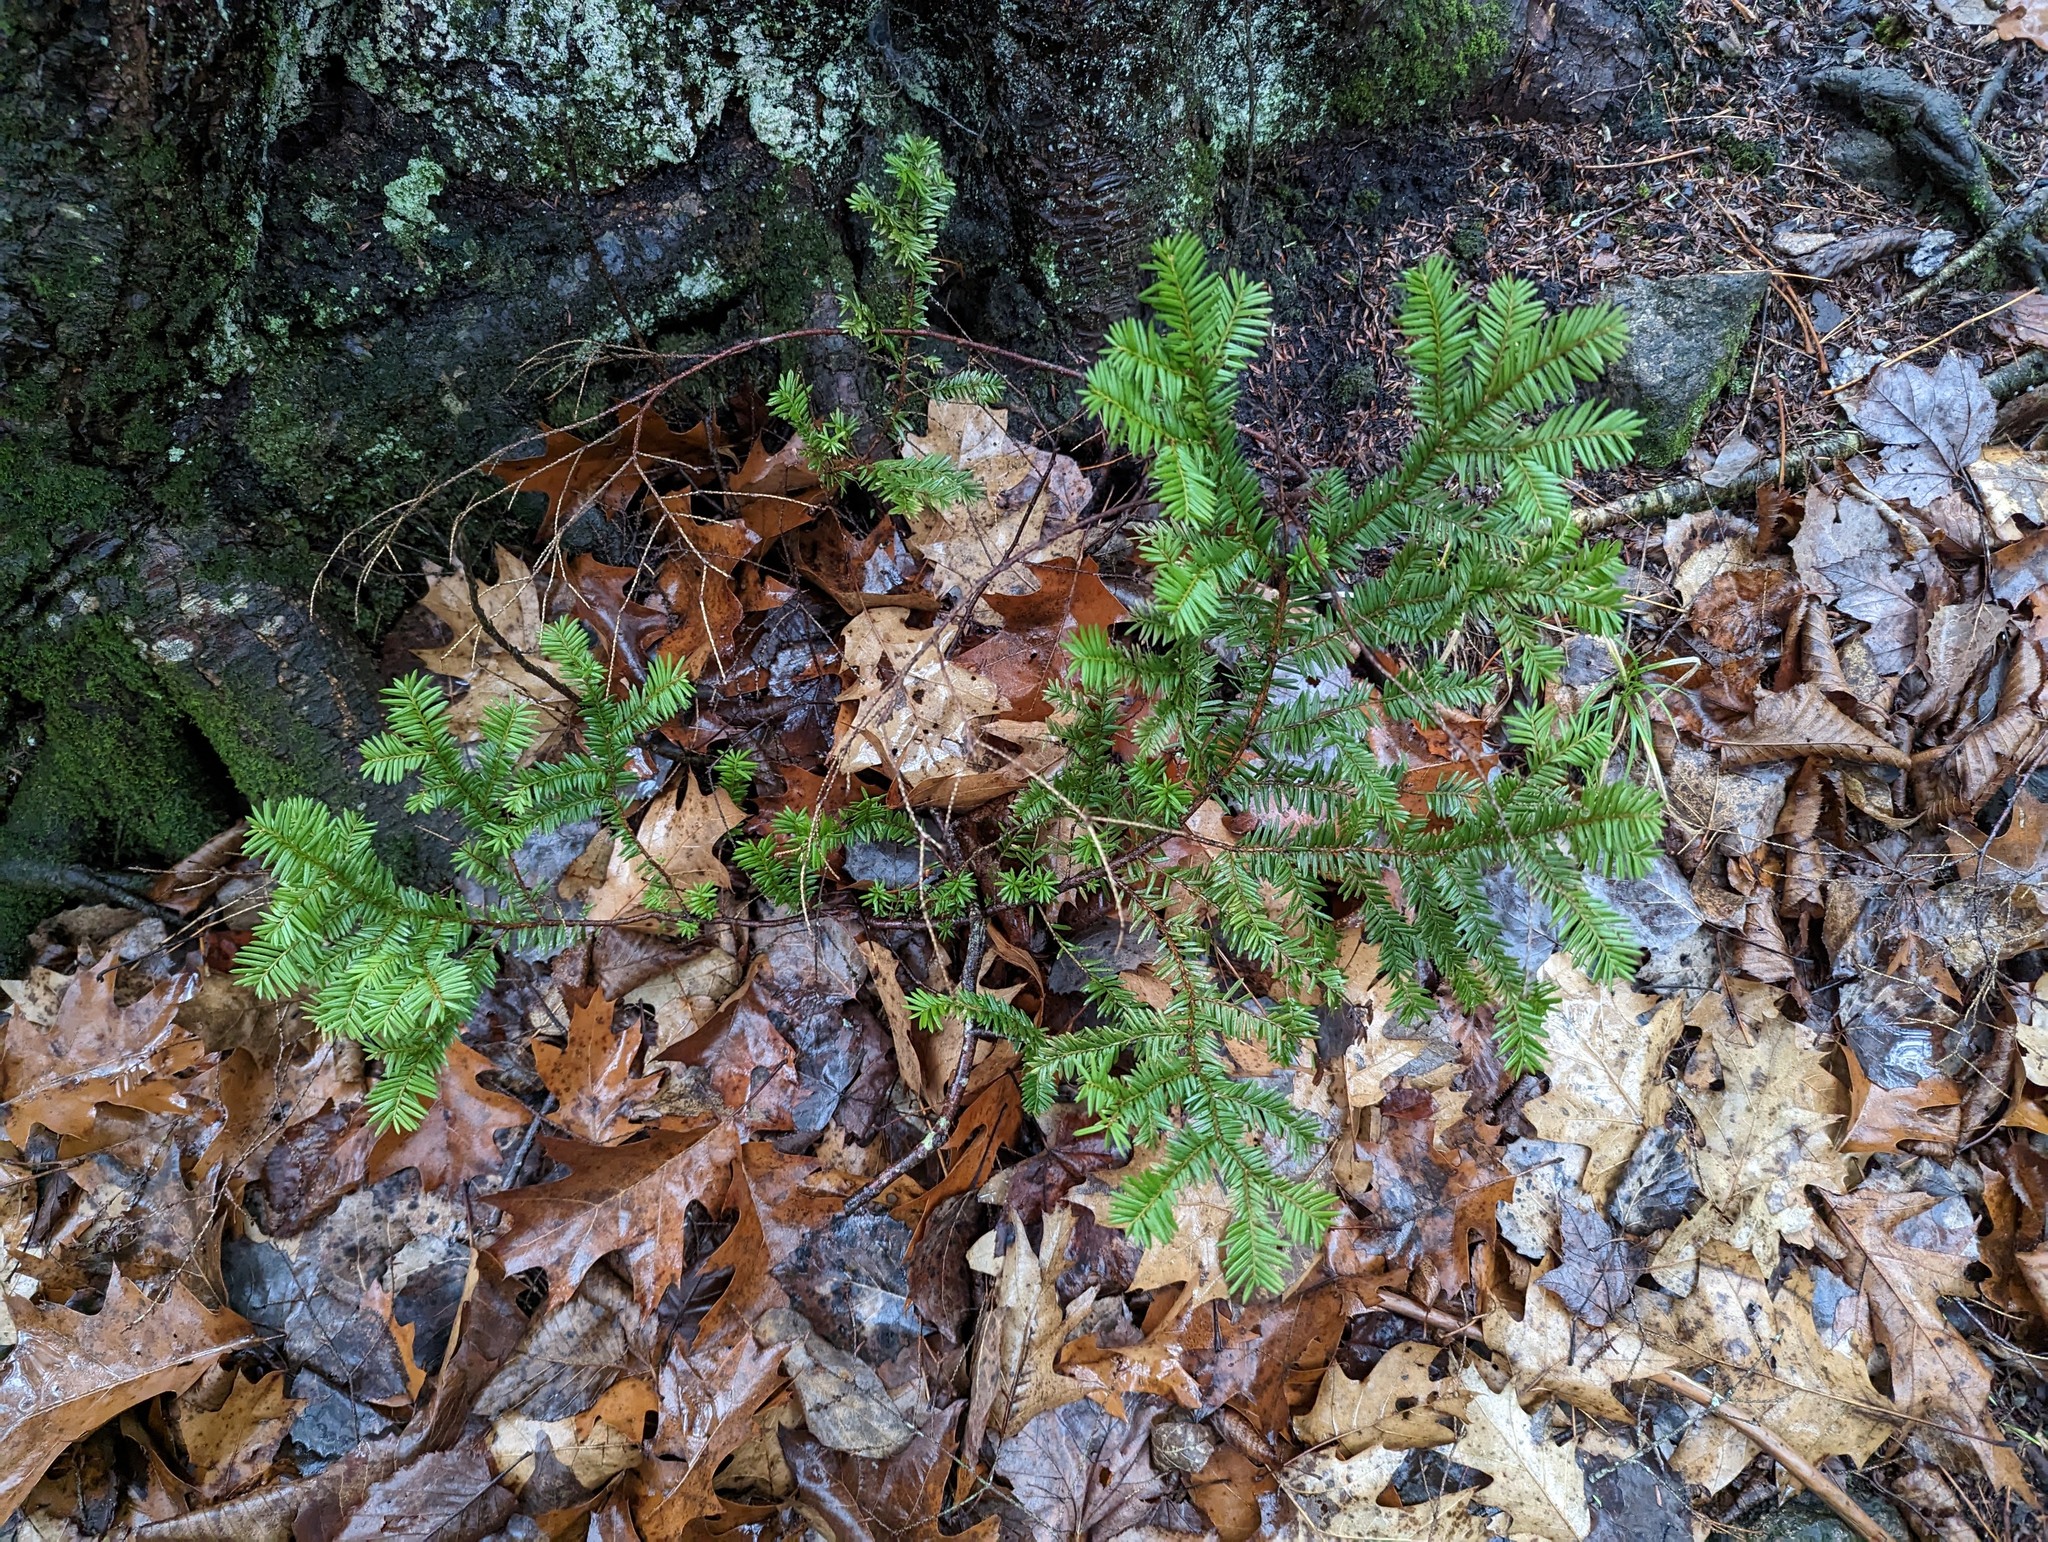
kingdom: Plantae
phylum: Tracheophyta
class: Pinopsida
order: Pinales
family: Taxaceae
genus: Taxus
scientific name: Taxus canadensis
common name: American yew
